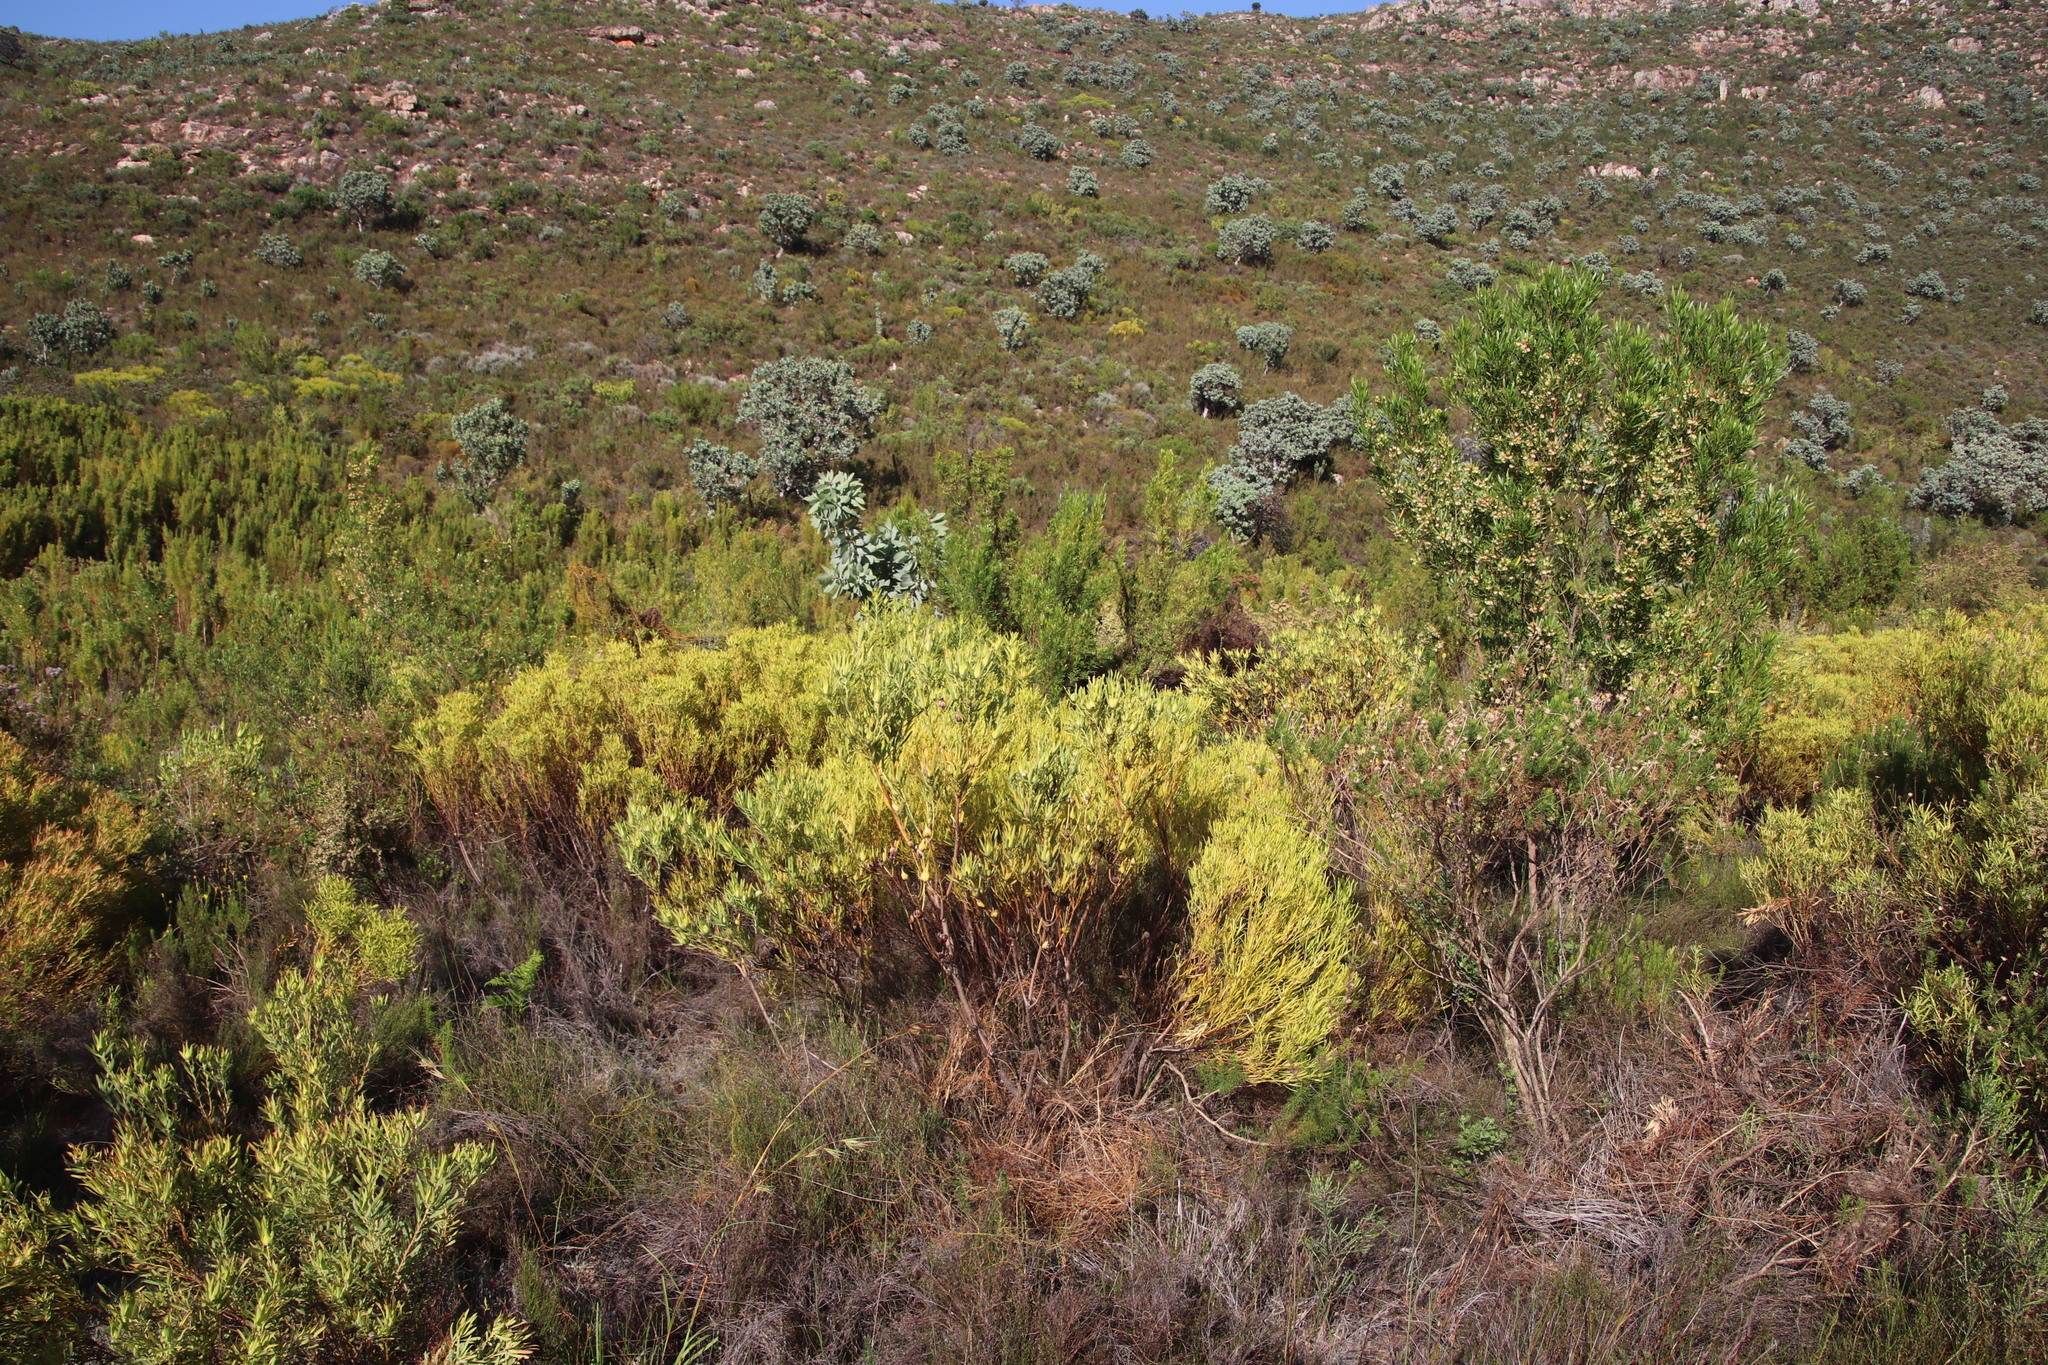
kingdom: Plantae
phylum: Tracheophyta
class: Magnoliopsida
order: Proteales
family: Proteaceae
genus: Leucadendron
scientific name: Leucadendron salignum
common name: Common sunshine conebush
